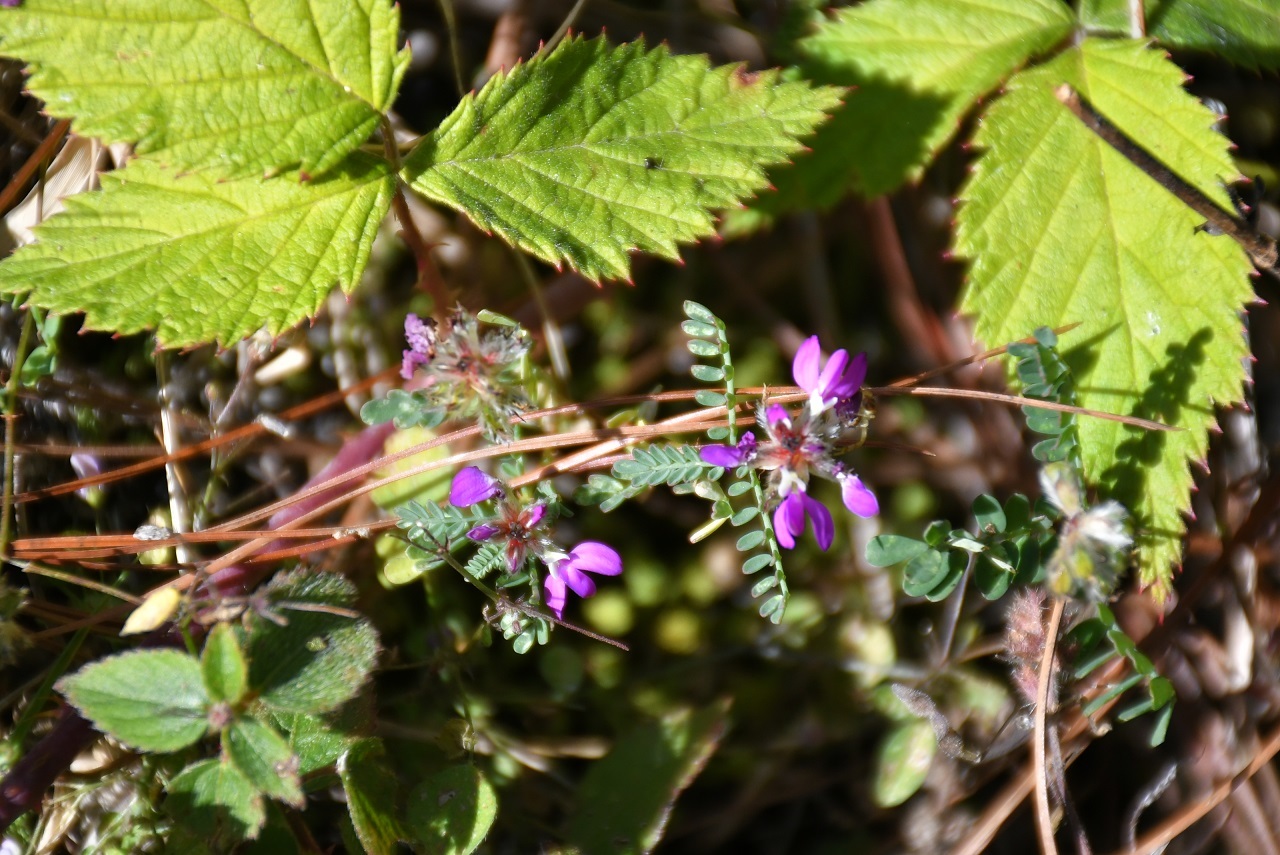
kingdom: Plantae
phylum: Tracheophyta
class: Magnoliopsida
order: Fabales
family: Fabaceae
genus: Dalea
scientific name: Dalea carthagenensis
